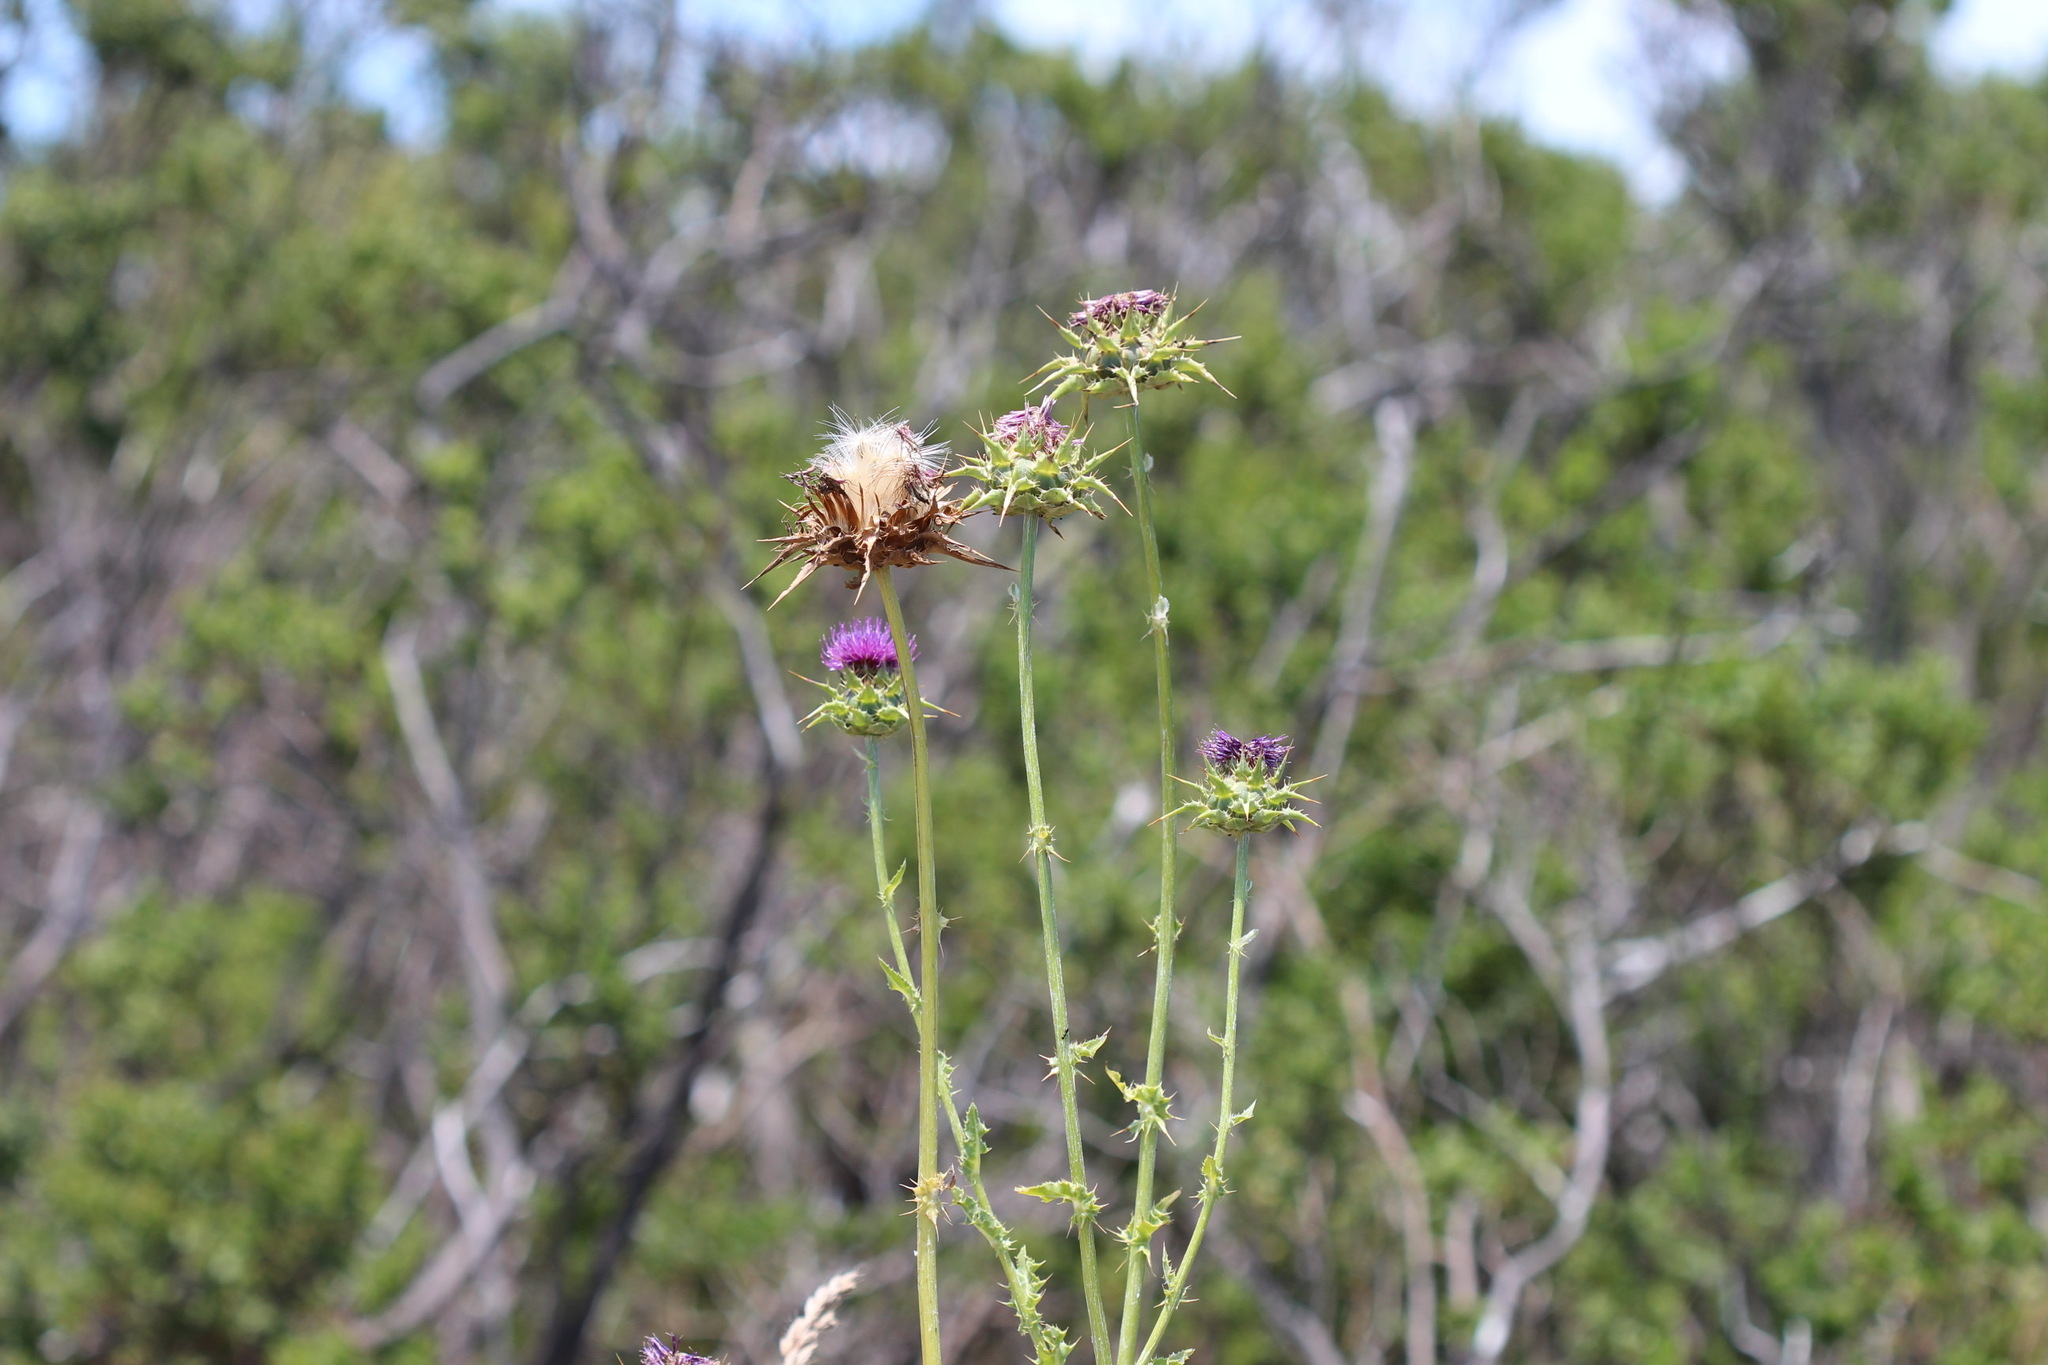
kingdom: Plantae
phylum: Tracheophyta
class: Magnoliopsida
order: Asterales
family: Asteraceae
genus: Silybum
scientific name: Silybum marianum
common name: Milk thistle
